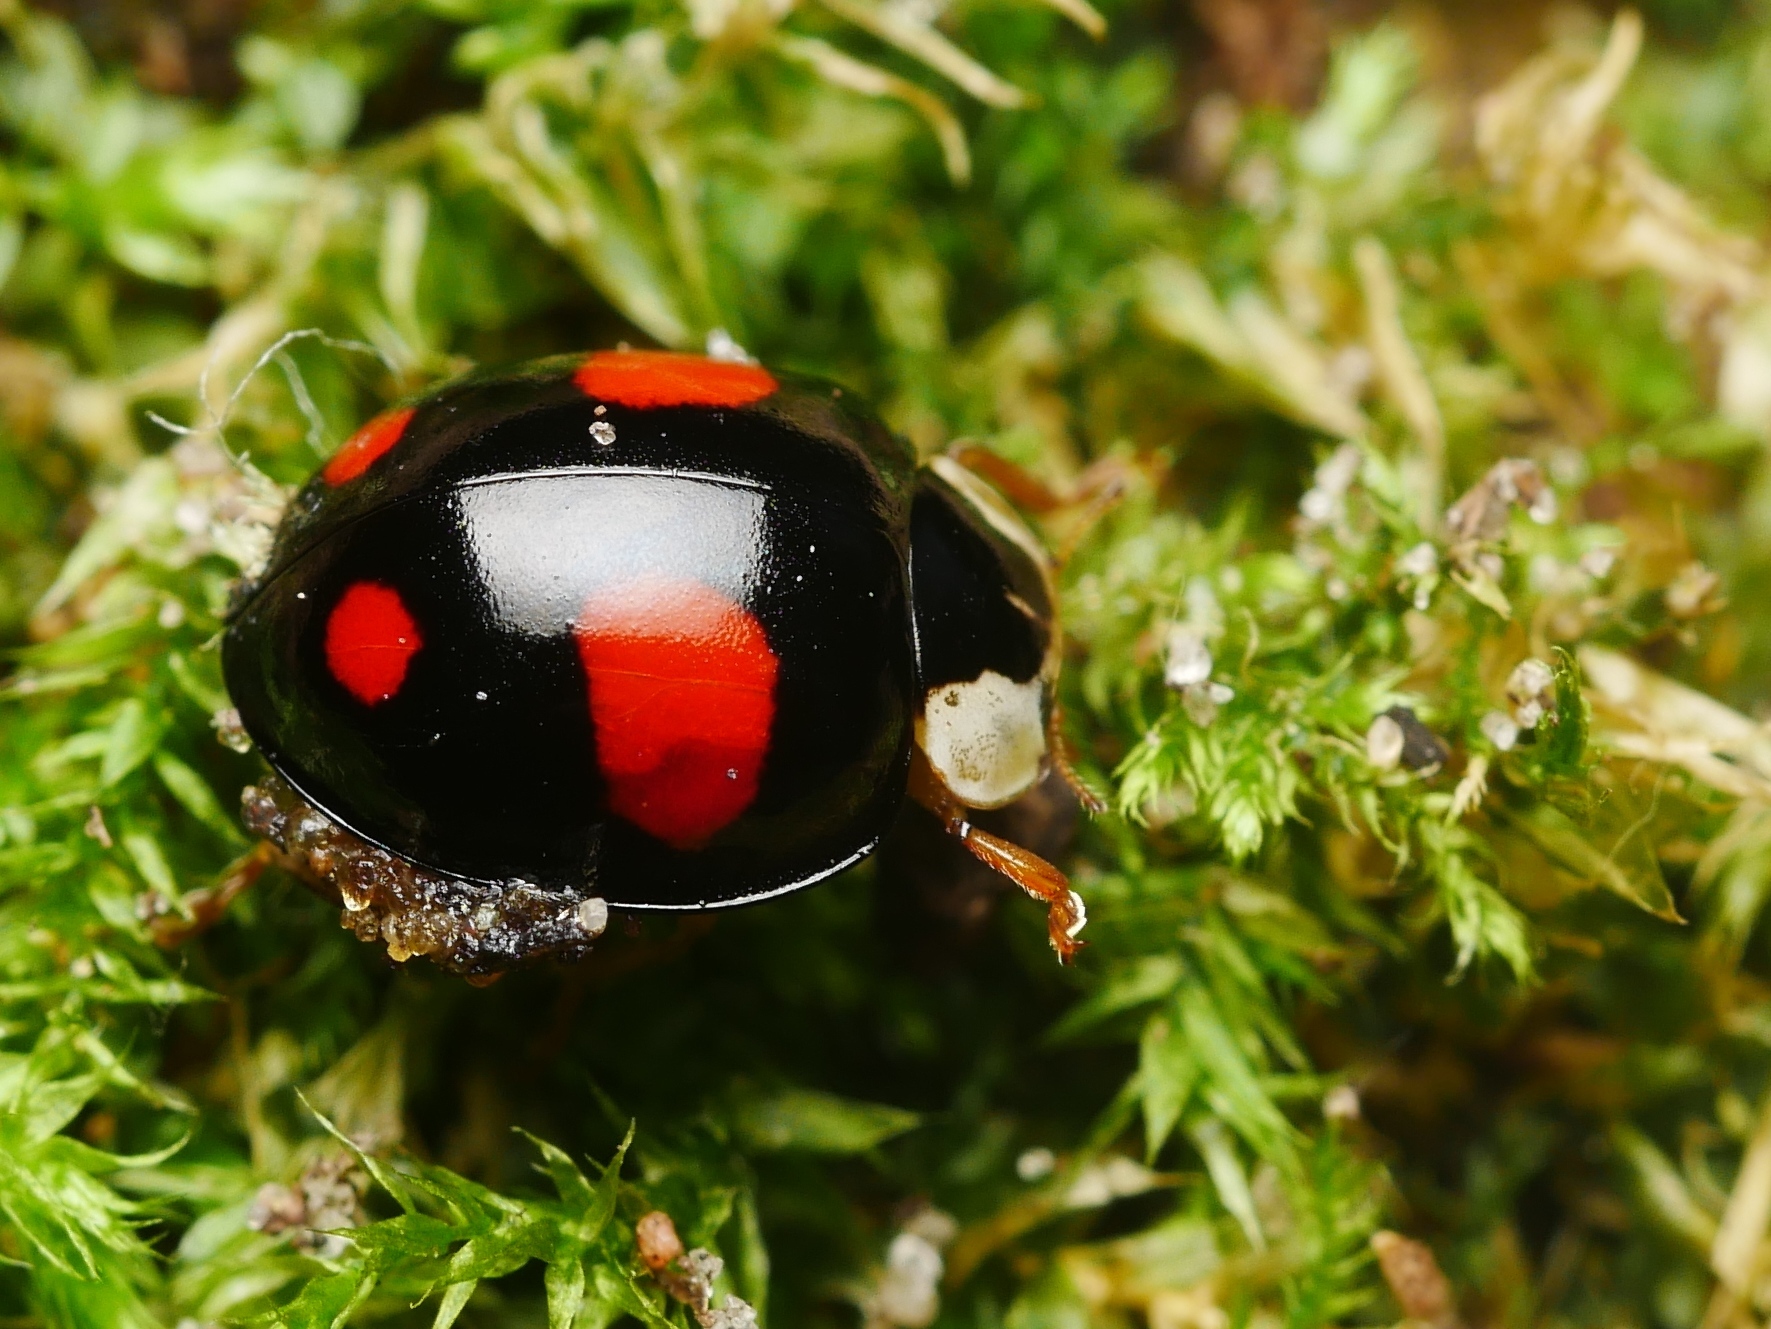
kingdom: Animalia
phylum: Arthropoda
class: Insecta
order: Coleoptera
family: Coccinellidae
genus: Harmonia
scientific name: Harmonia axyridis
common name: Harlequin ladybird
